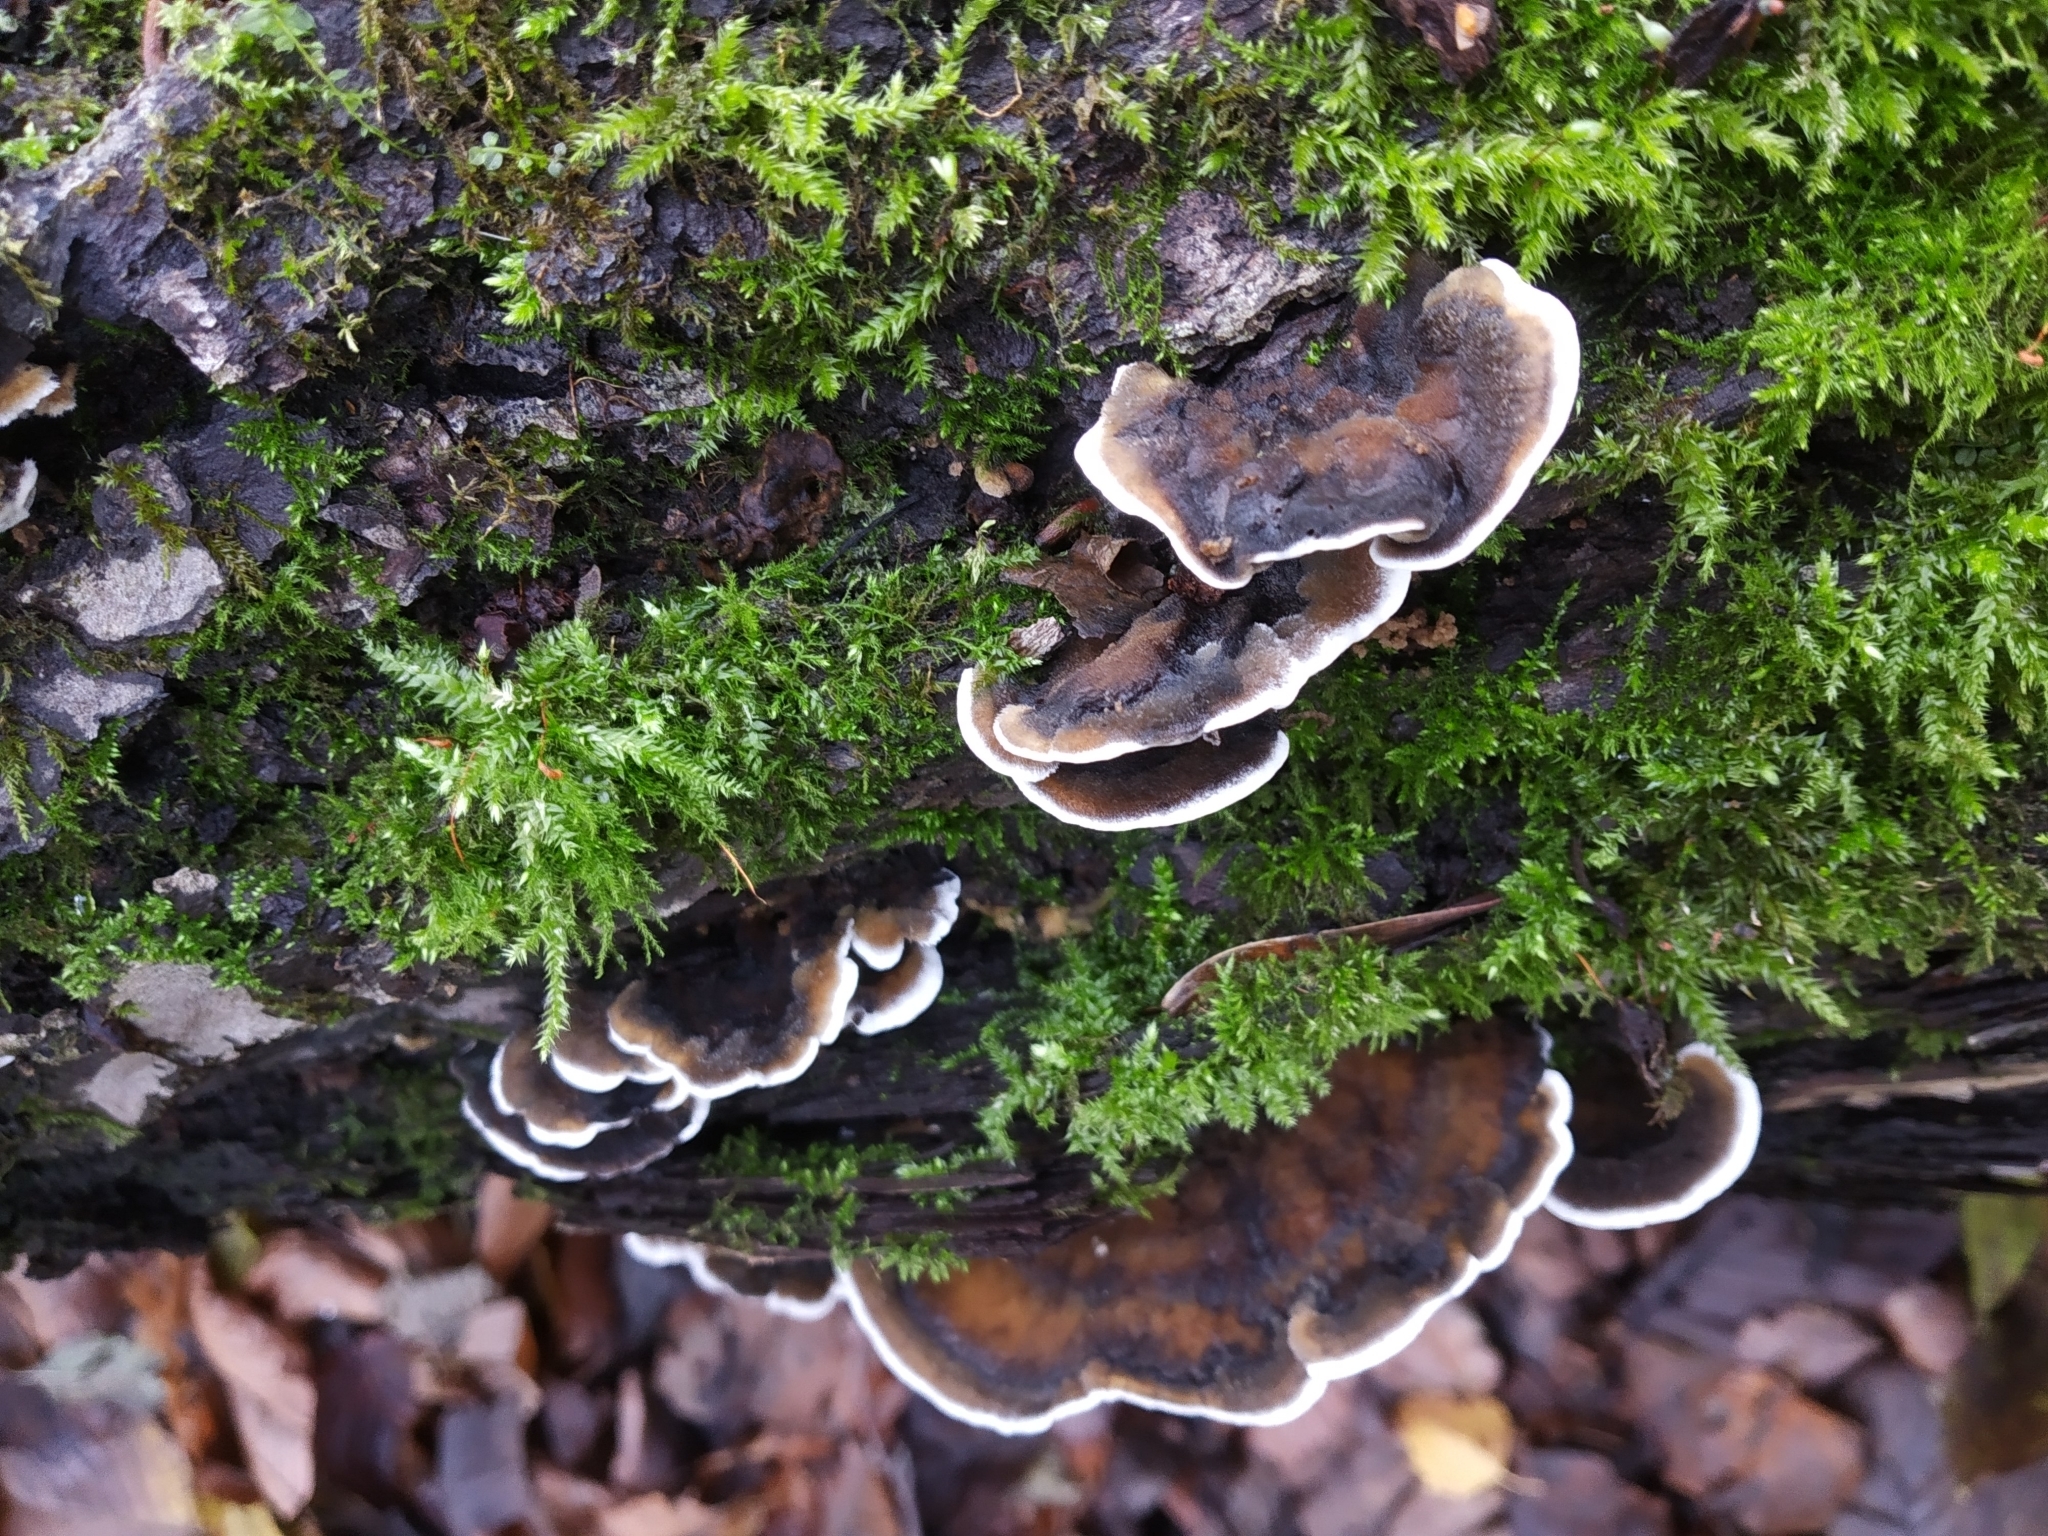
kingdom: Fungi
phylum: Basidiomycota
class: Agaricomycetes
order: Polyporales
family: Phanerochaetaceae
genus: Bjerkandera
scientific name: Bjerkandera adusta
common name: Smoky bracket
